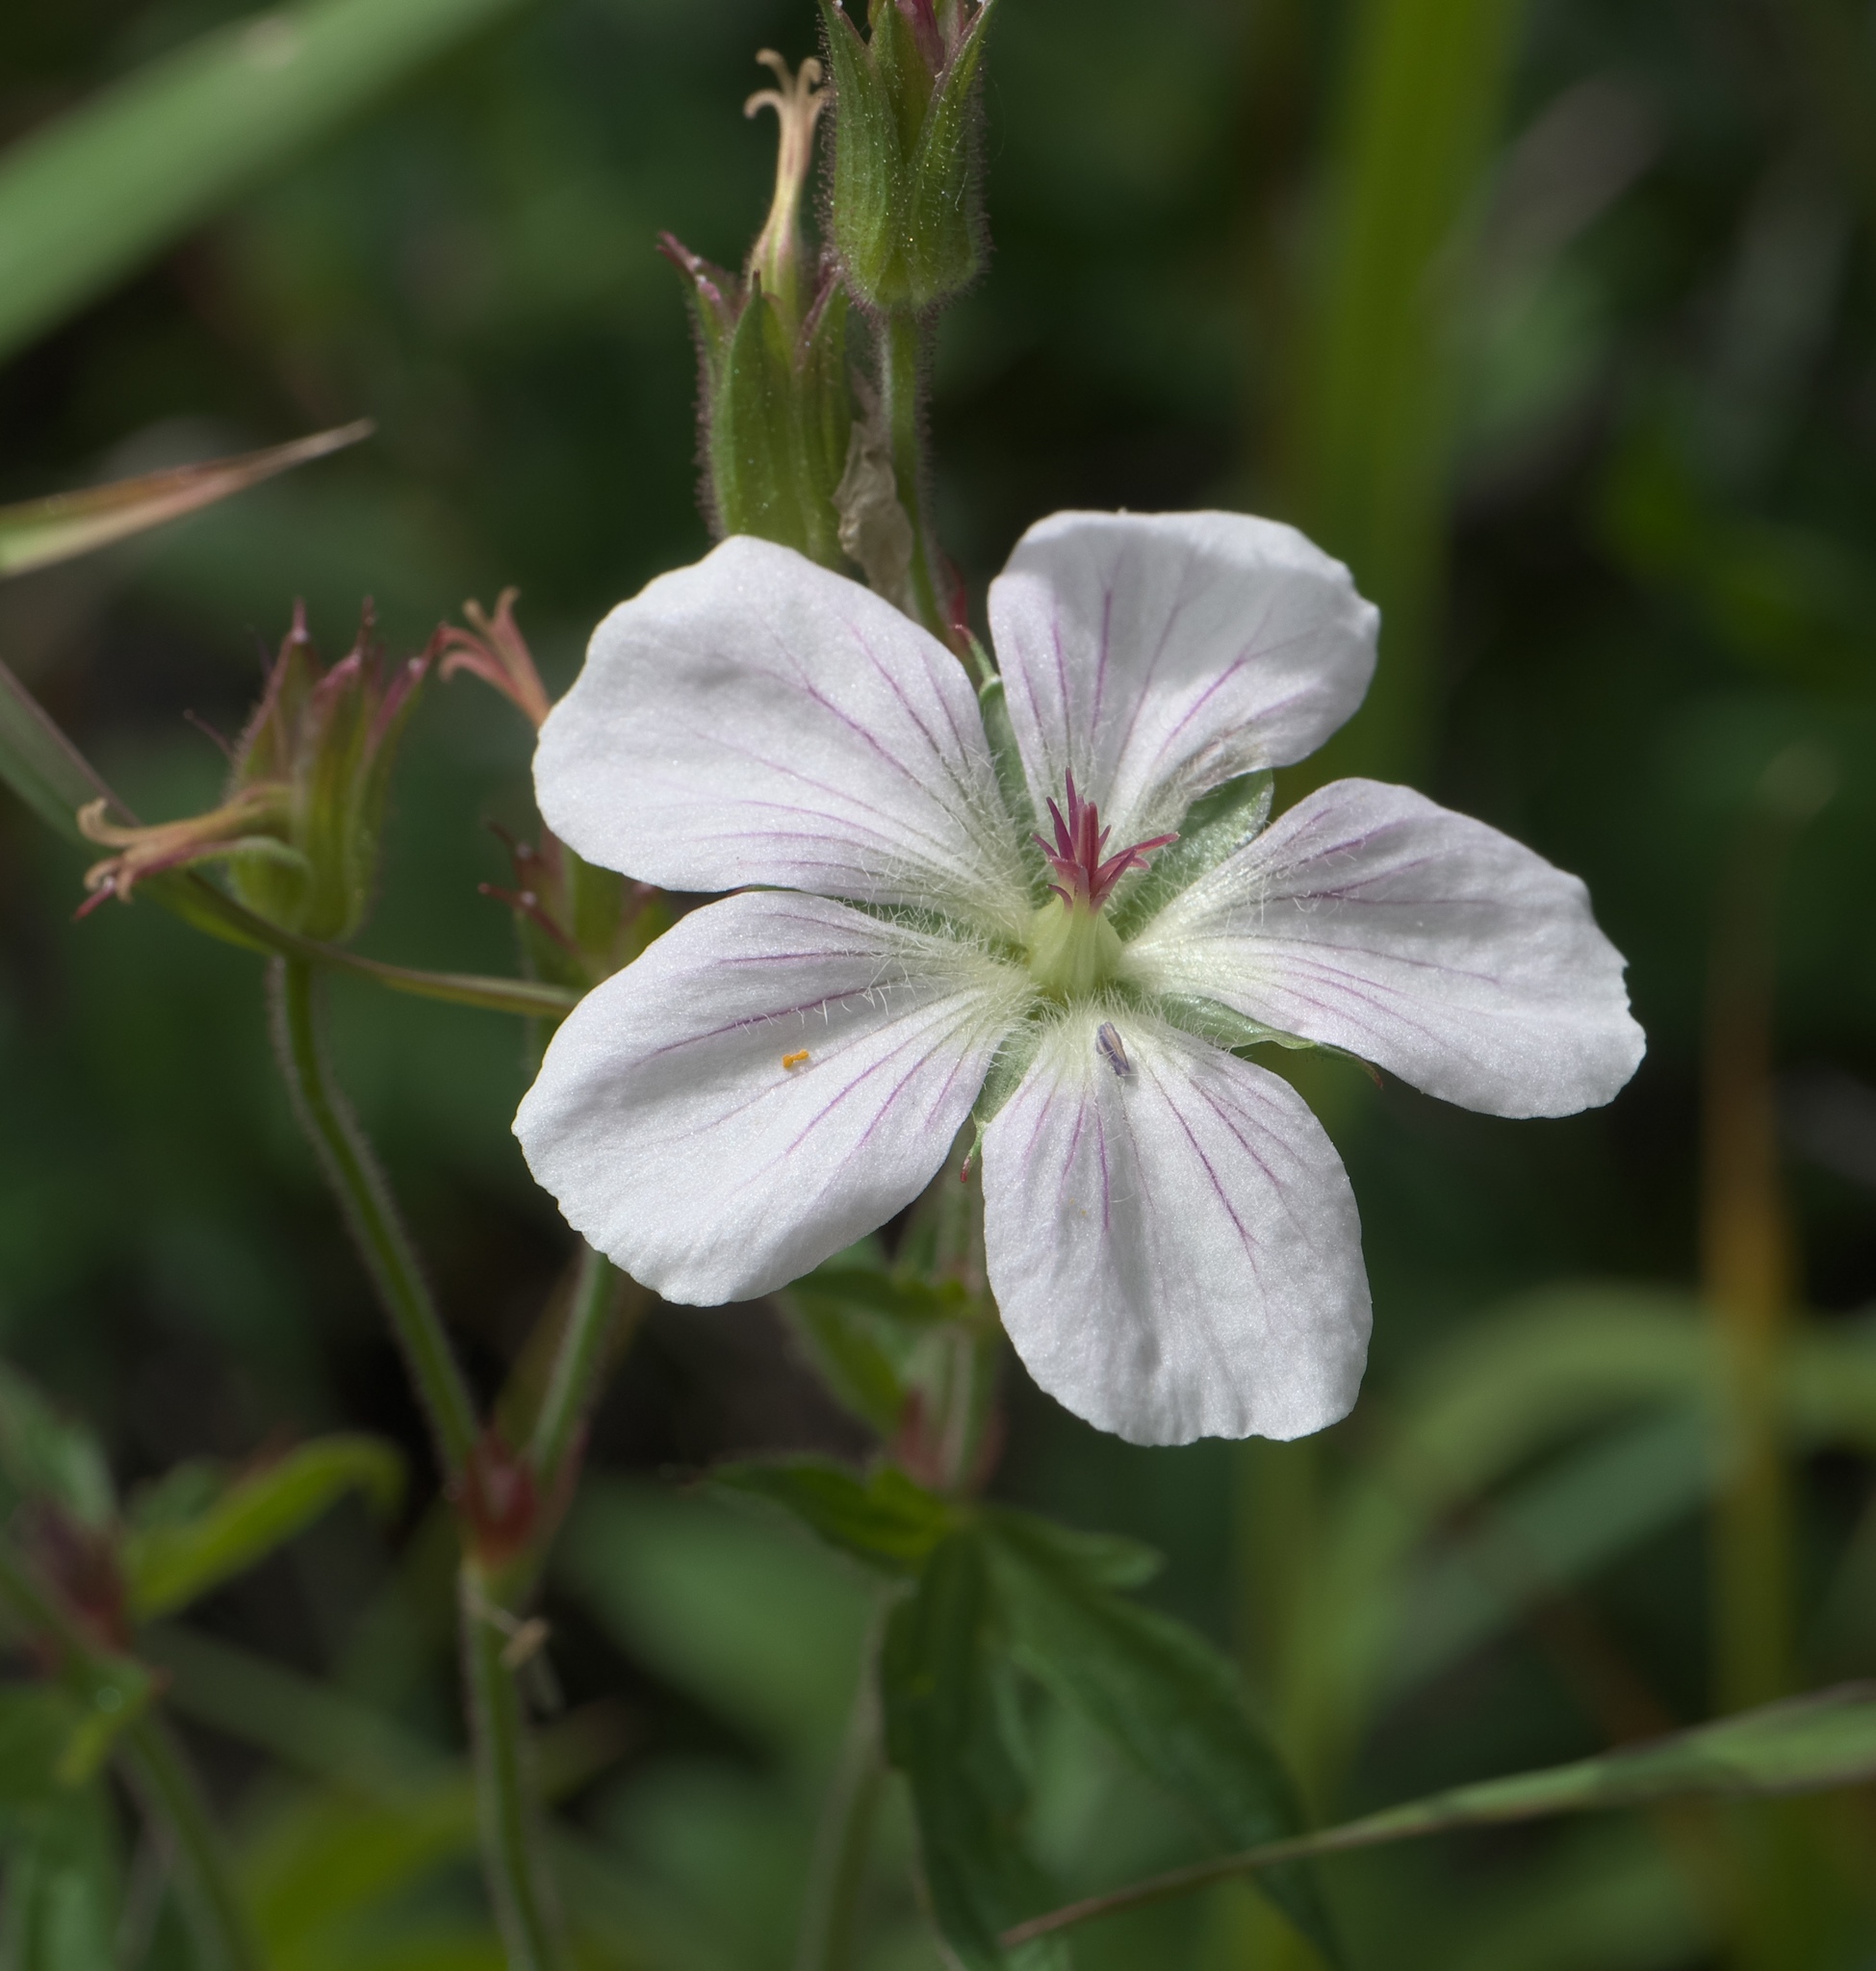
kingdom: Plantae
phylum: Tracheophyta
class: Magnoliopsida
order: Geraniales
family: Geraniaceae
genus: Geranium
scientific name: Geranium richardsonii
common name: Richardson's crane's-bill
